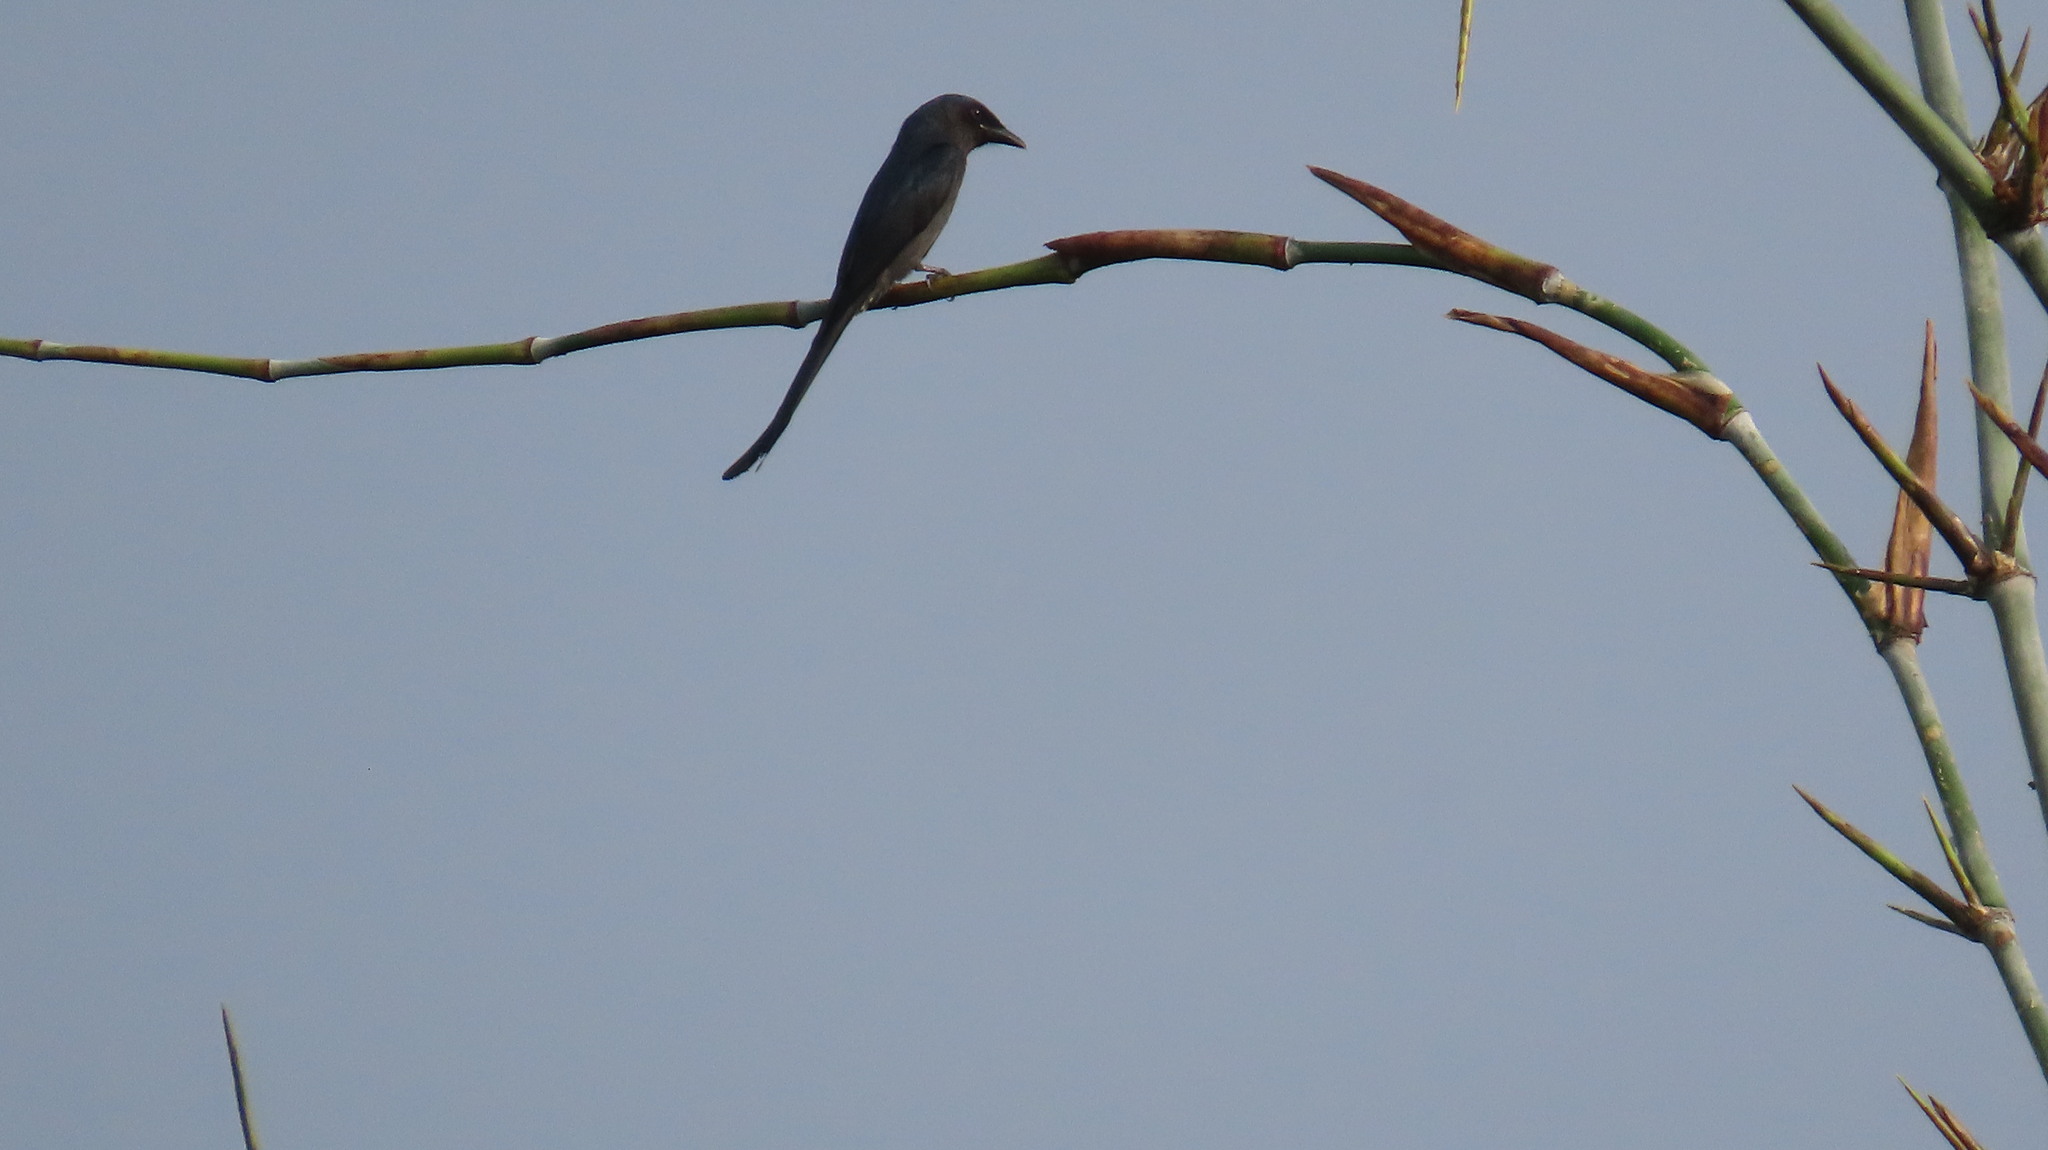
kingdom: Animalia
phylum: Chordata
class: Aves
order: Passeriformes
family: Dicruridae
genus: Dicrurus
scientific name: Dicrurus macrocercus
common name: Black drongo
